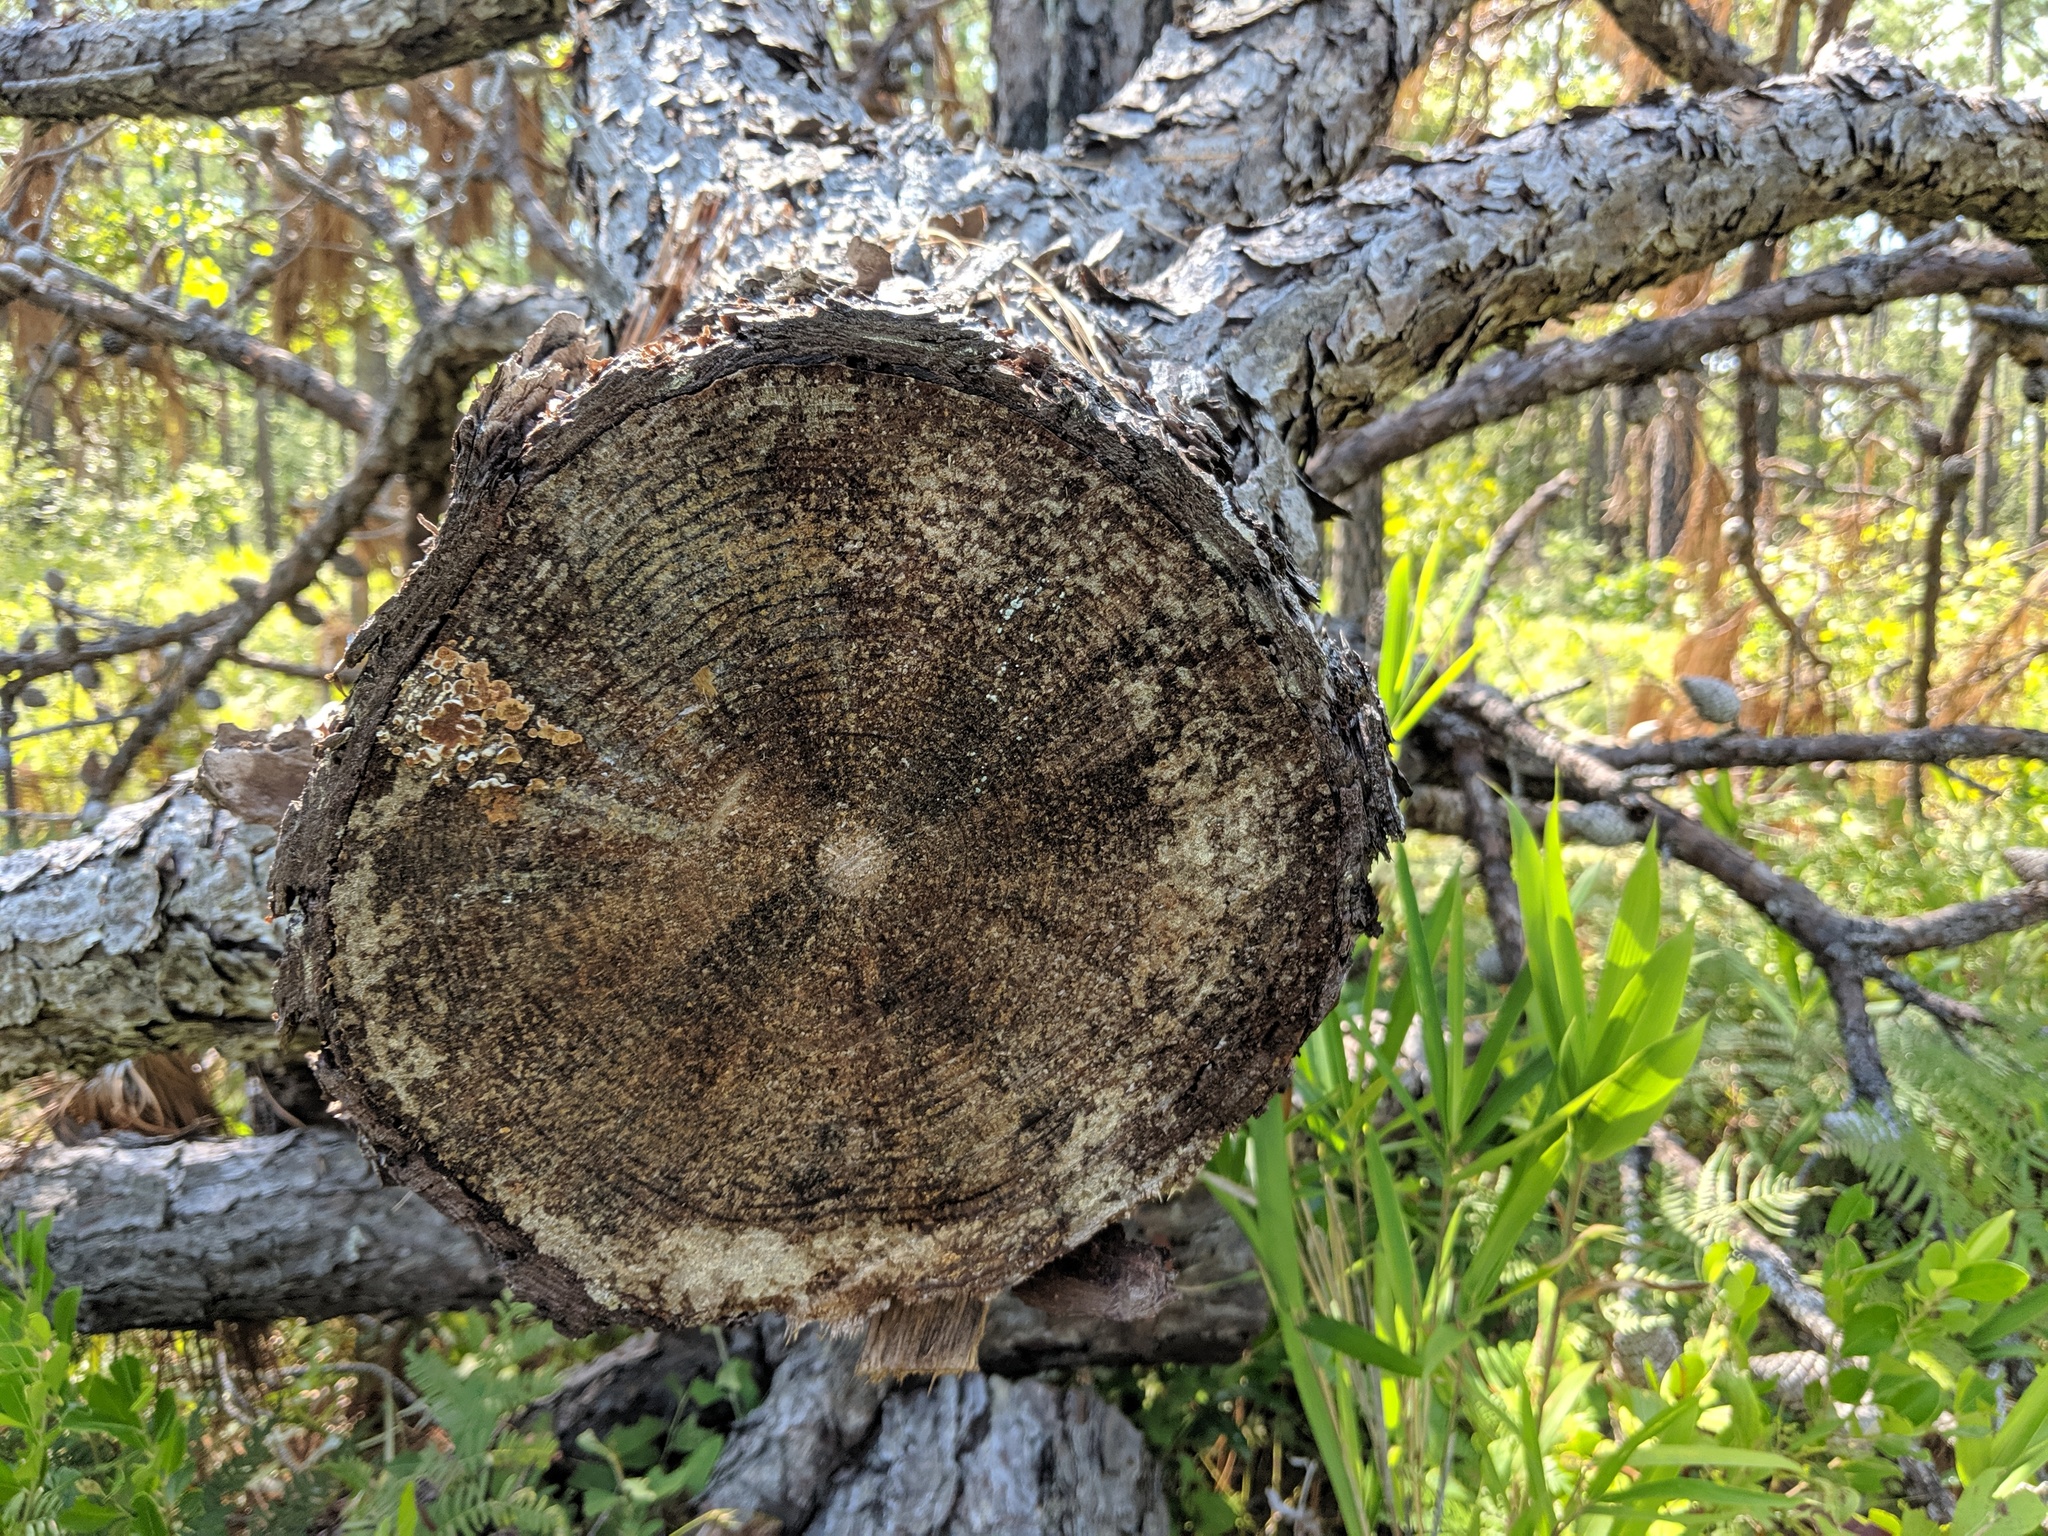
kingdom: Plantae
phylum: Tracheophyta
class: Pinopsida
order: Pinales
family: Pinaceae
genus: Pinus
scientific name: Pinus serotina
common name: Marsh pine
